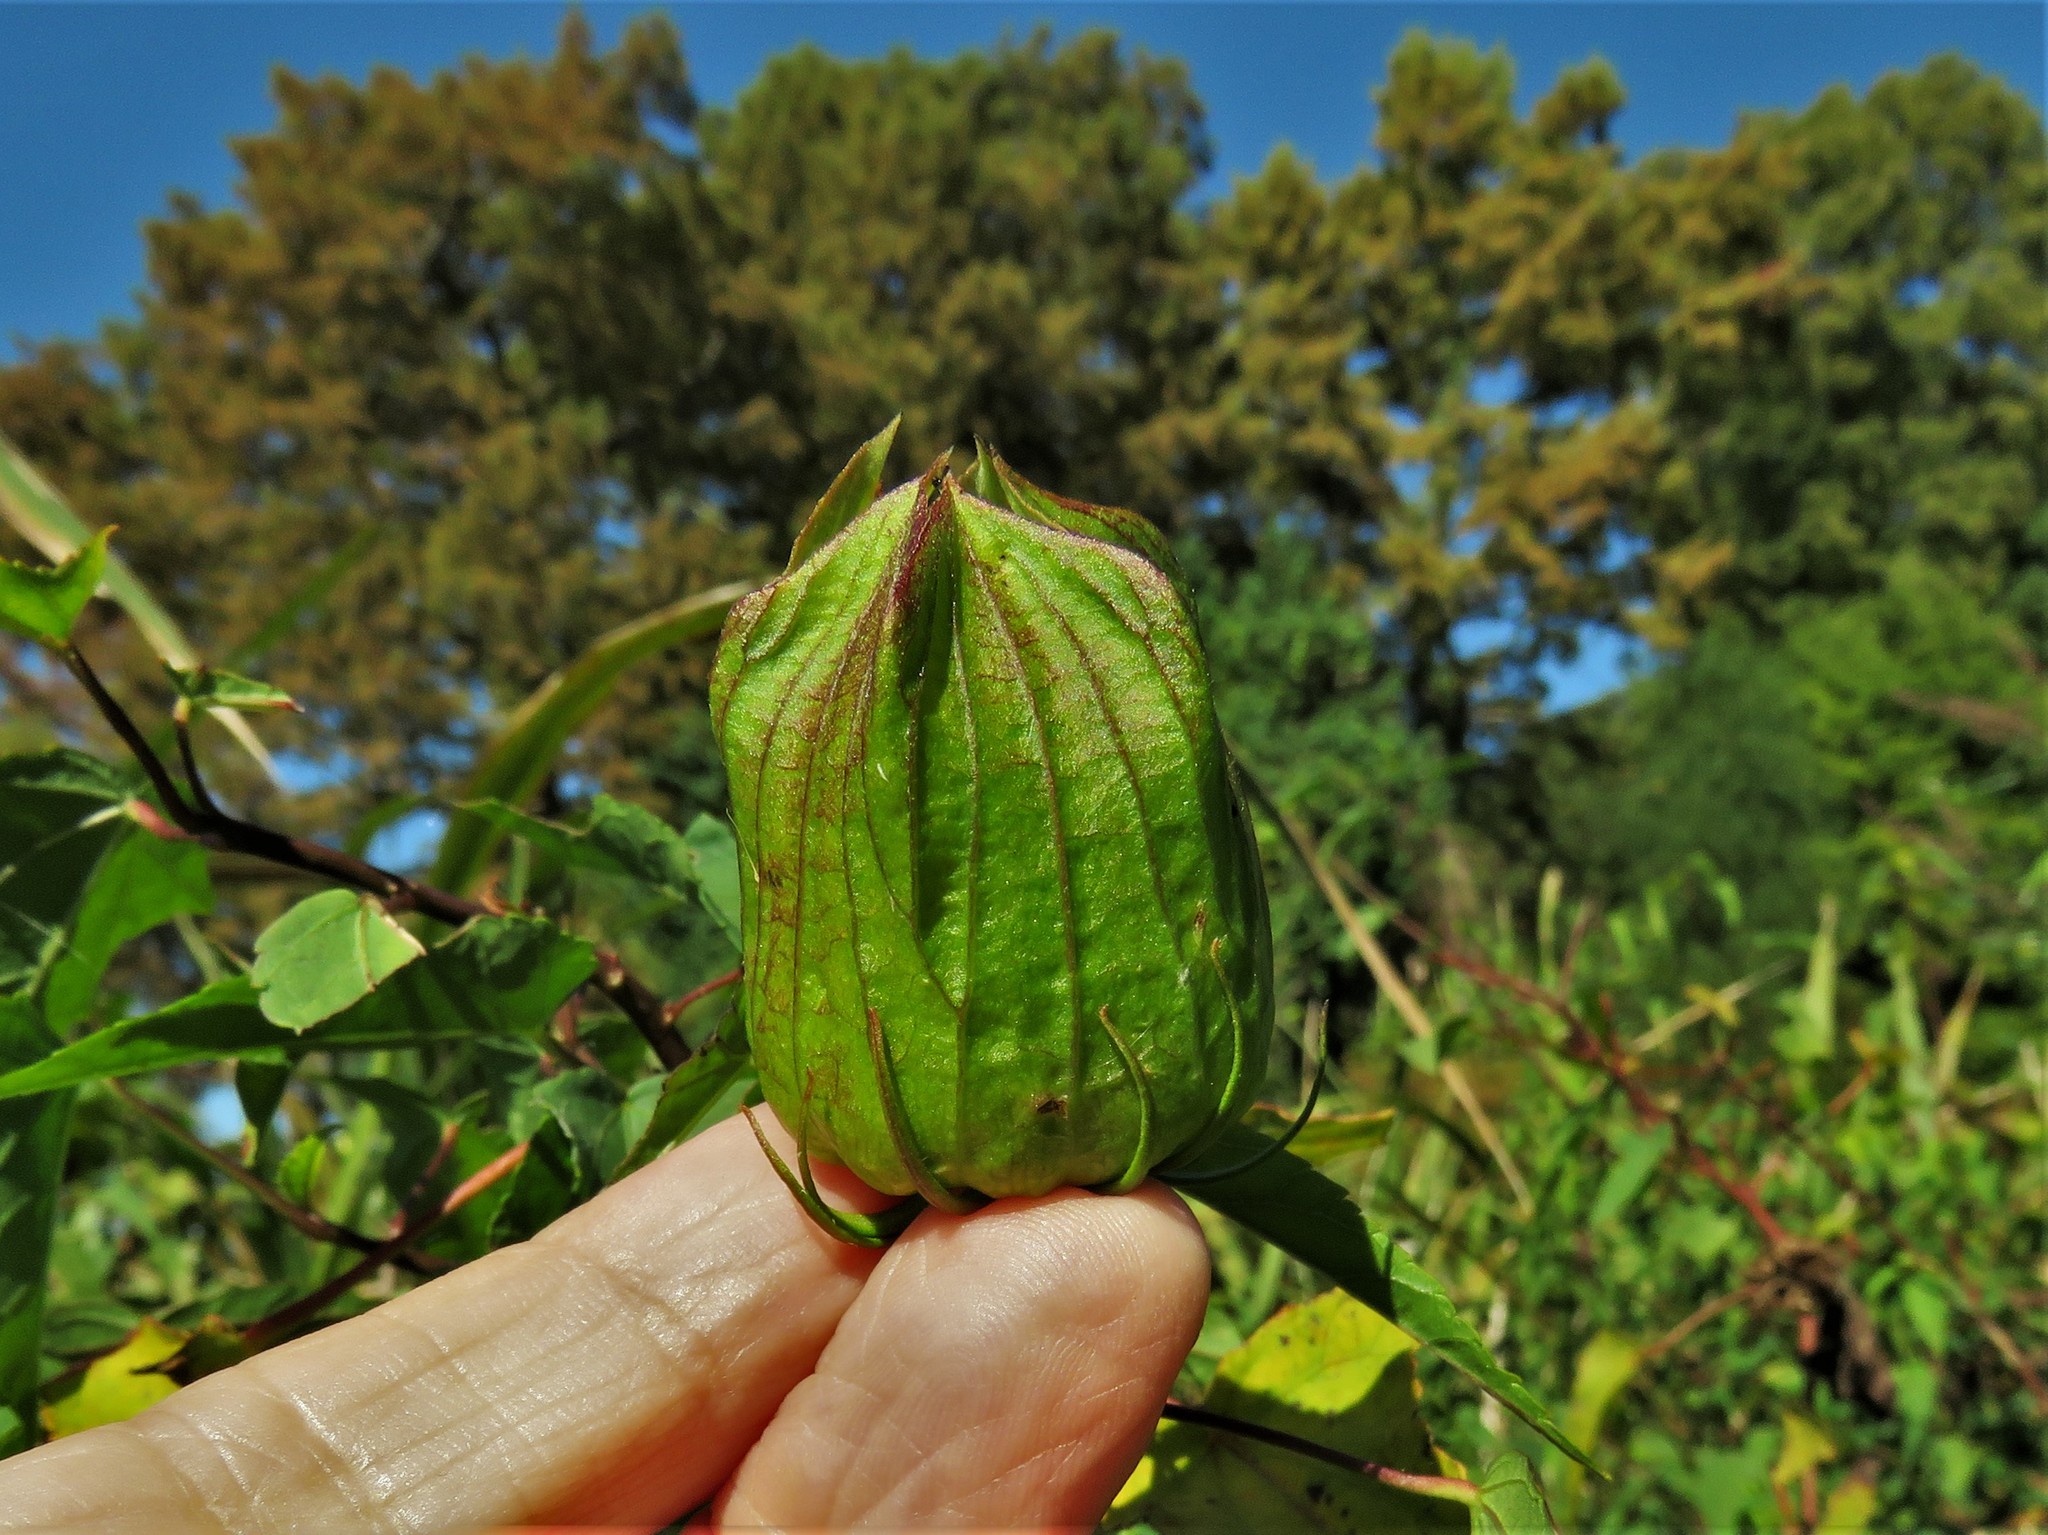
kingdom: Plantae
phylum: Tracheophyta
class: Magnoliopsida
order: Malvales
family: Malvaceae
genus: Hibiscus
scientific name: Hibiscus laevis
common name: Scarlet rose-mallow
